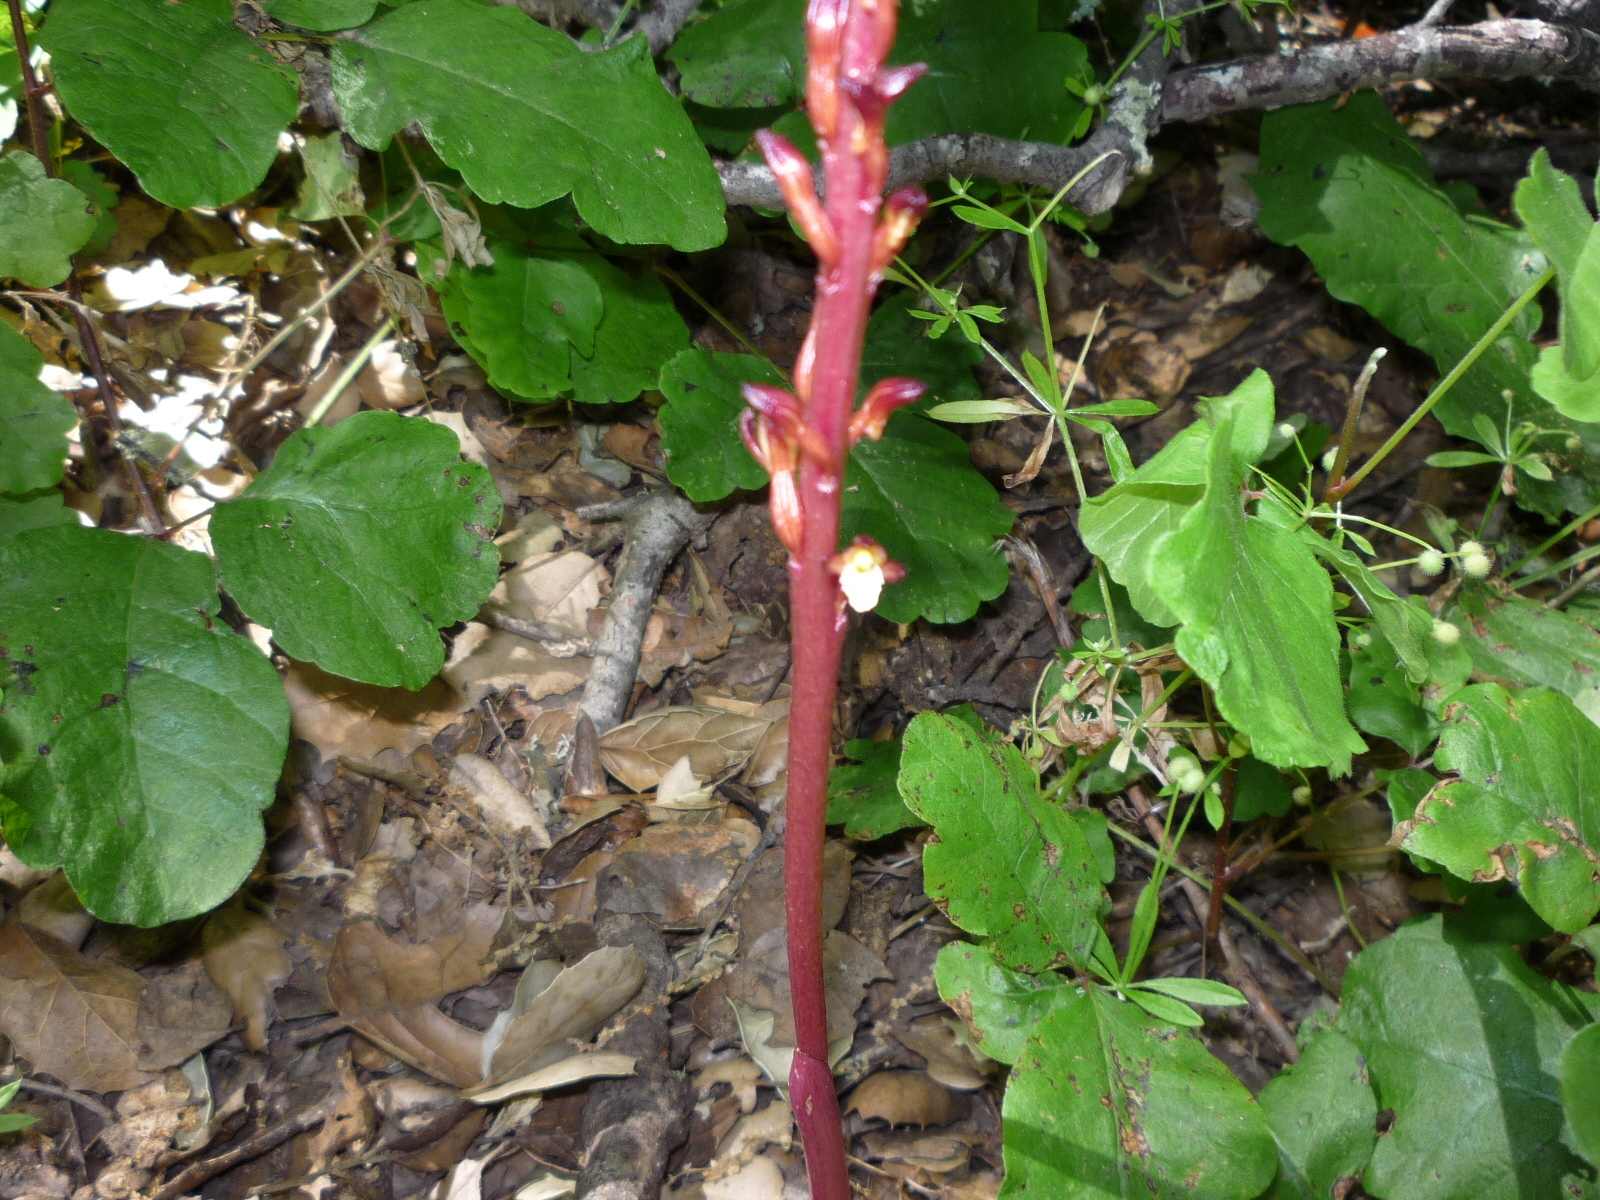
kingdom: Plantae
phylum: Tracheophyta
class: Liliopsida
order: Asparagales
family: Orchidaceae
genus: Corallorhiza
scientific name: Corallorhiza maculata
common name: Spotted coralroot
